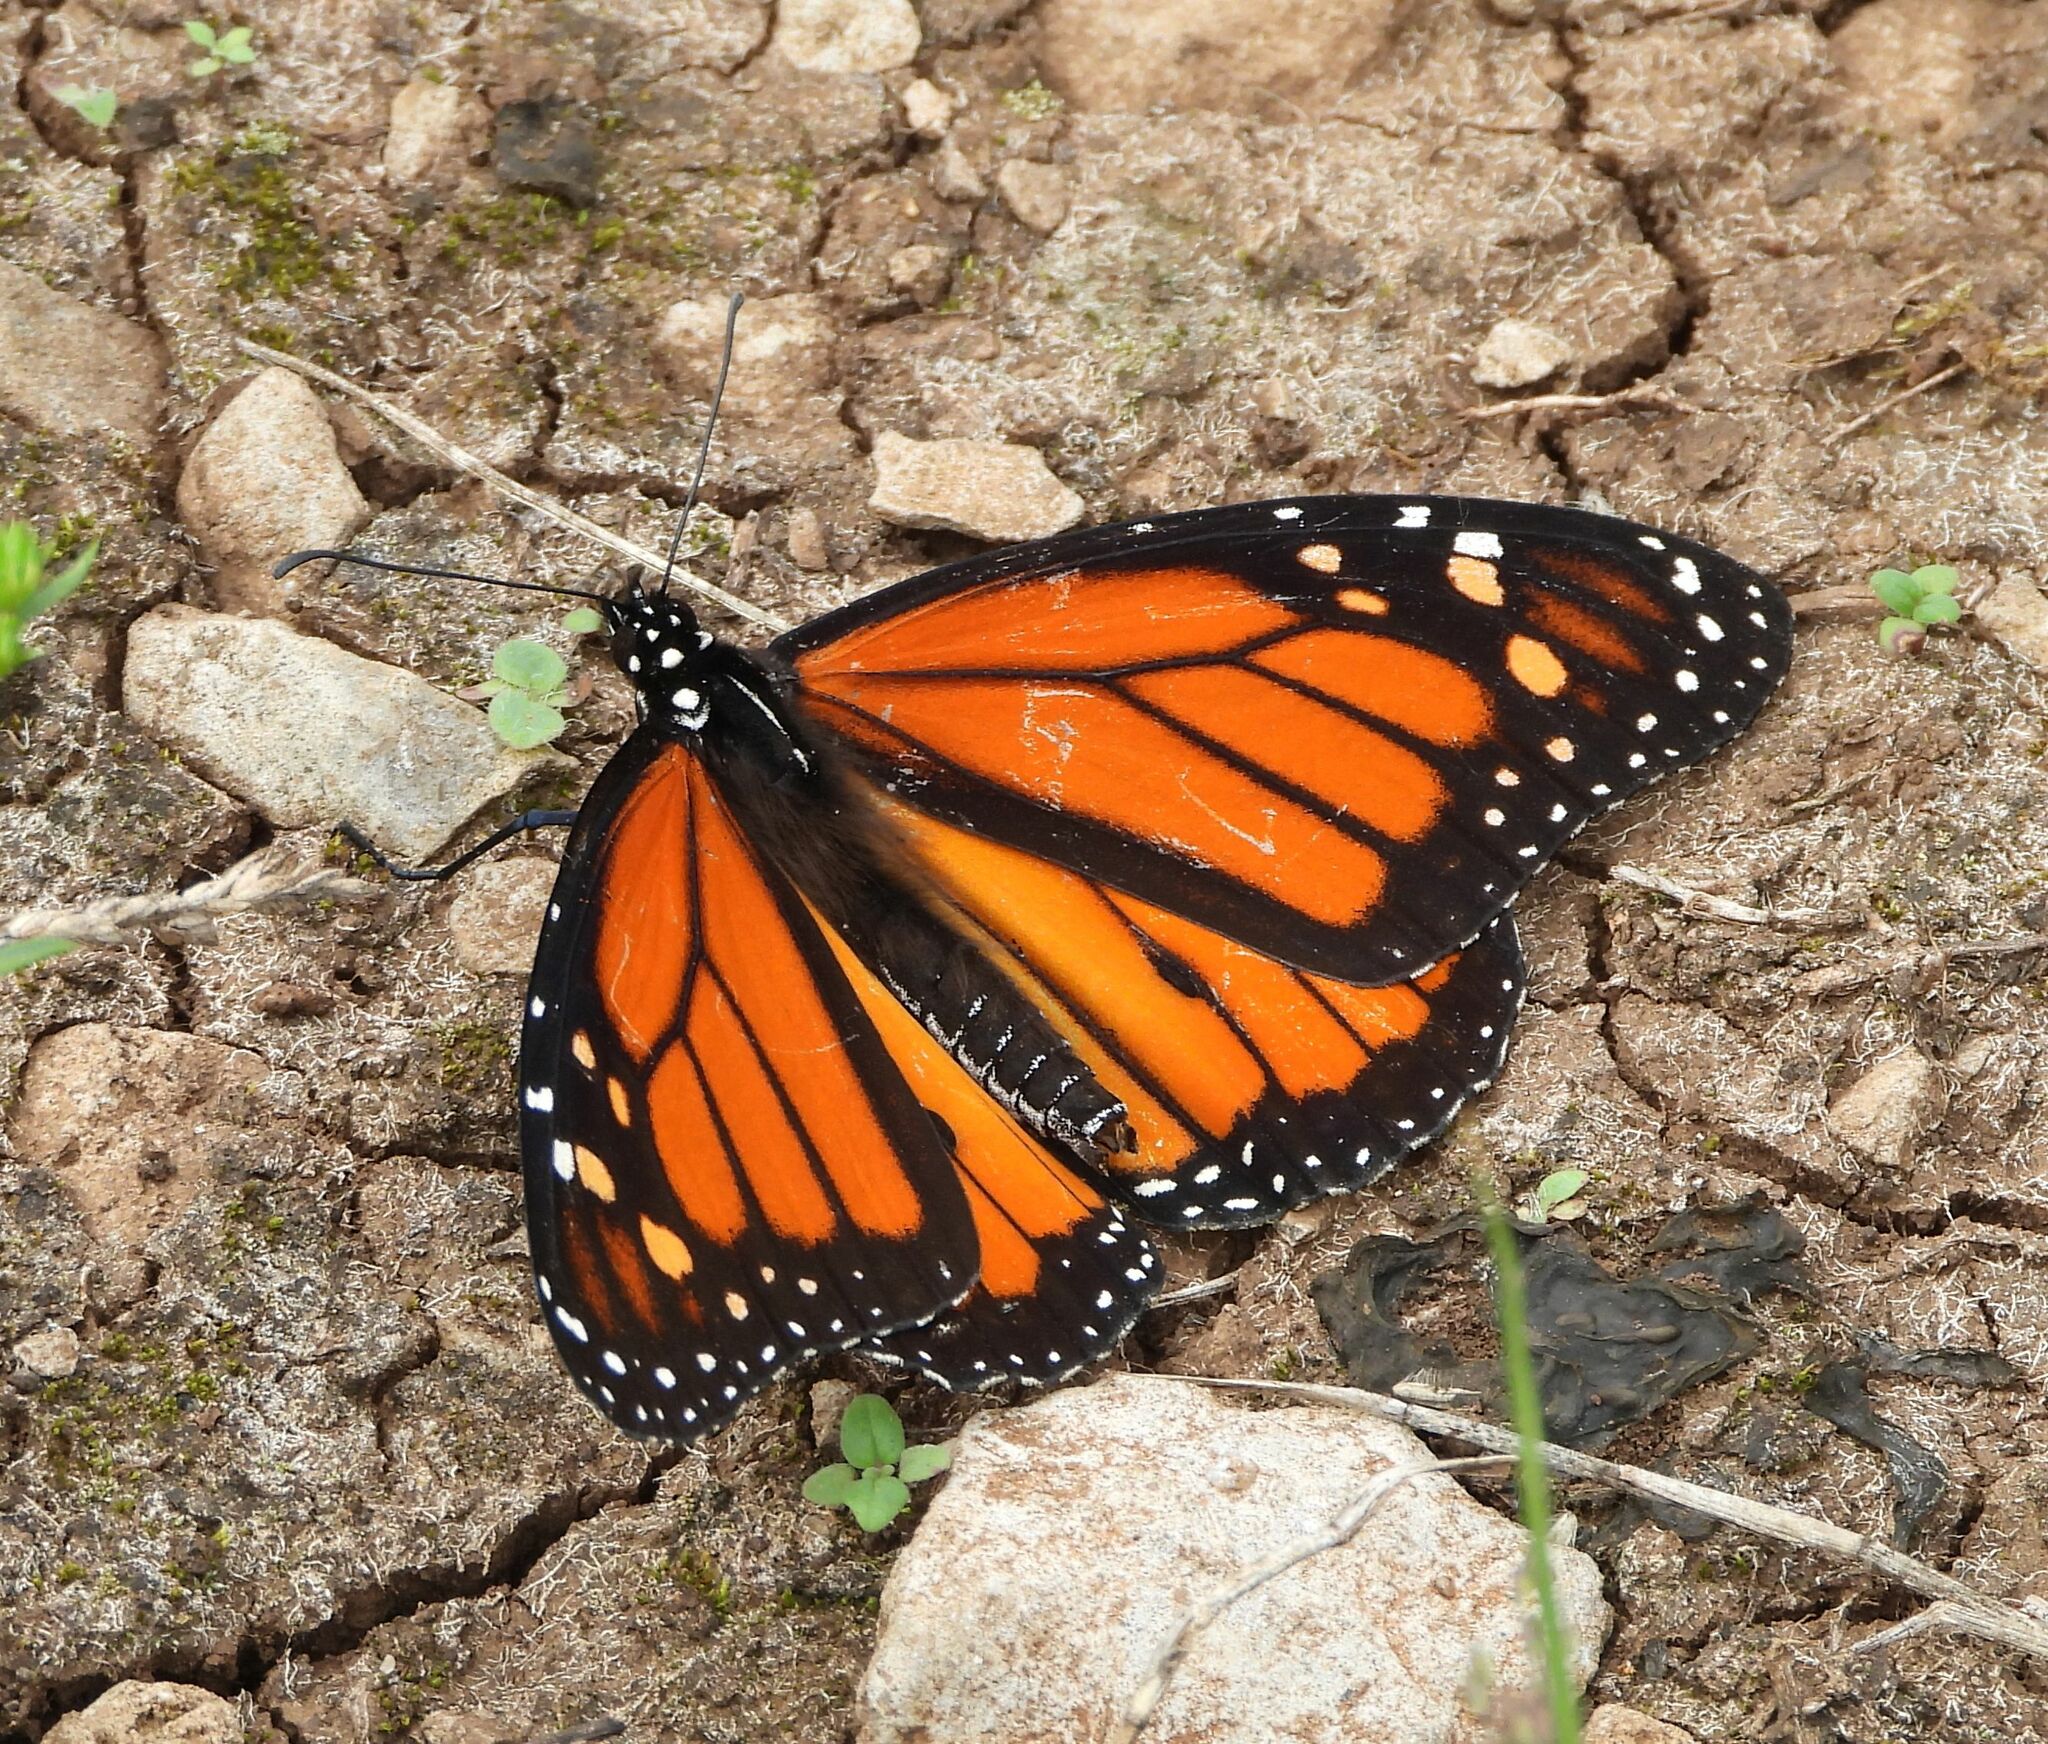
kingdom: Animalia
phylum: Arthropoda
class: Insecta
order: Lepidoptera
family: Nymphalidae
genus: Danaus
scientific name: Danaus plexippus
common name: Monarch
